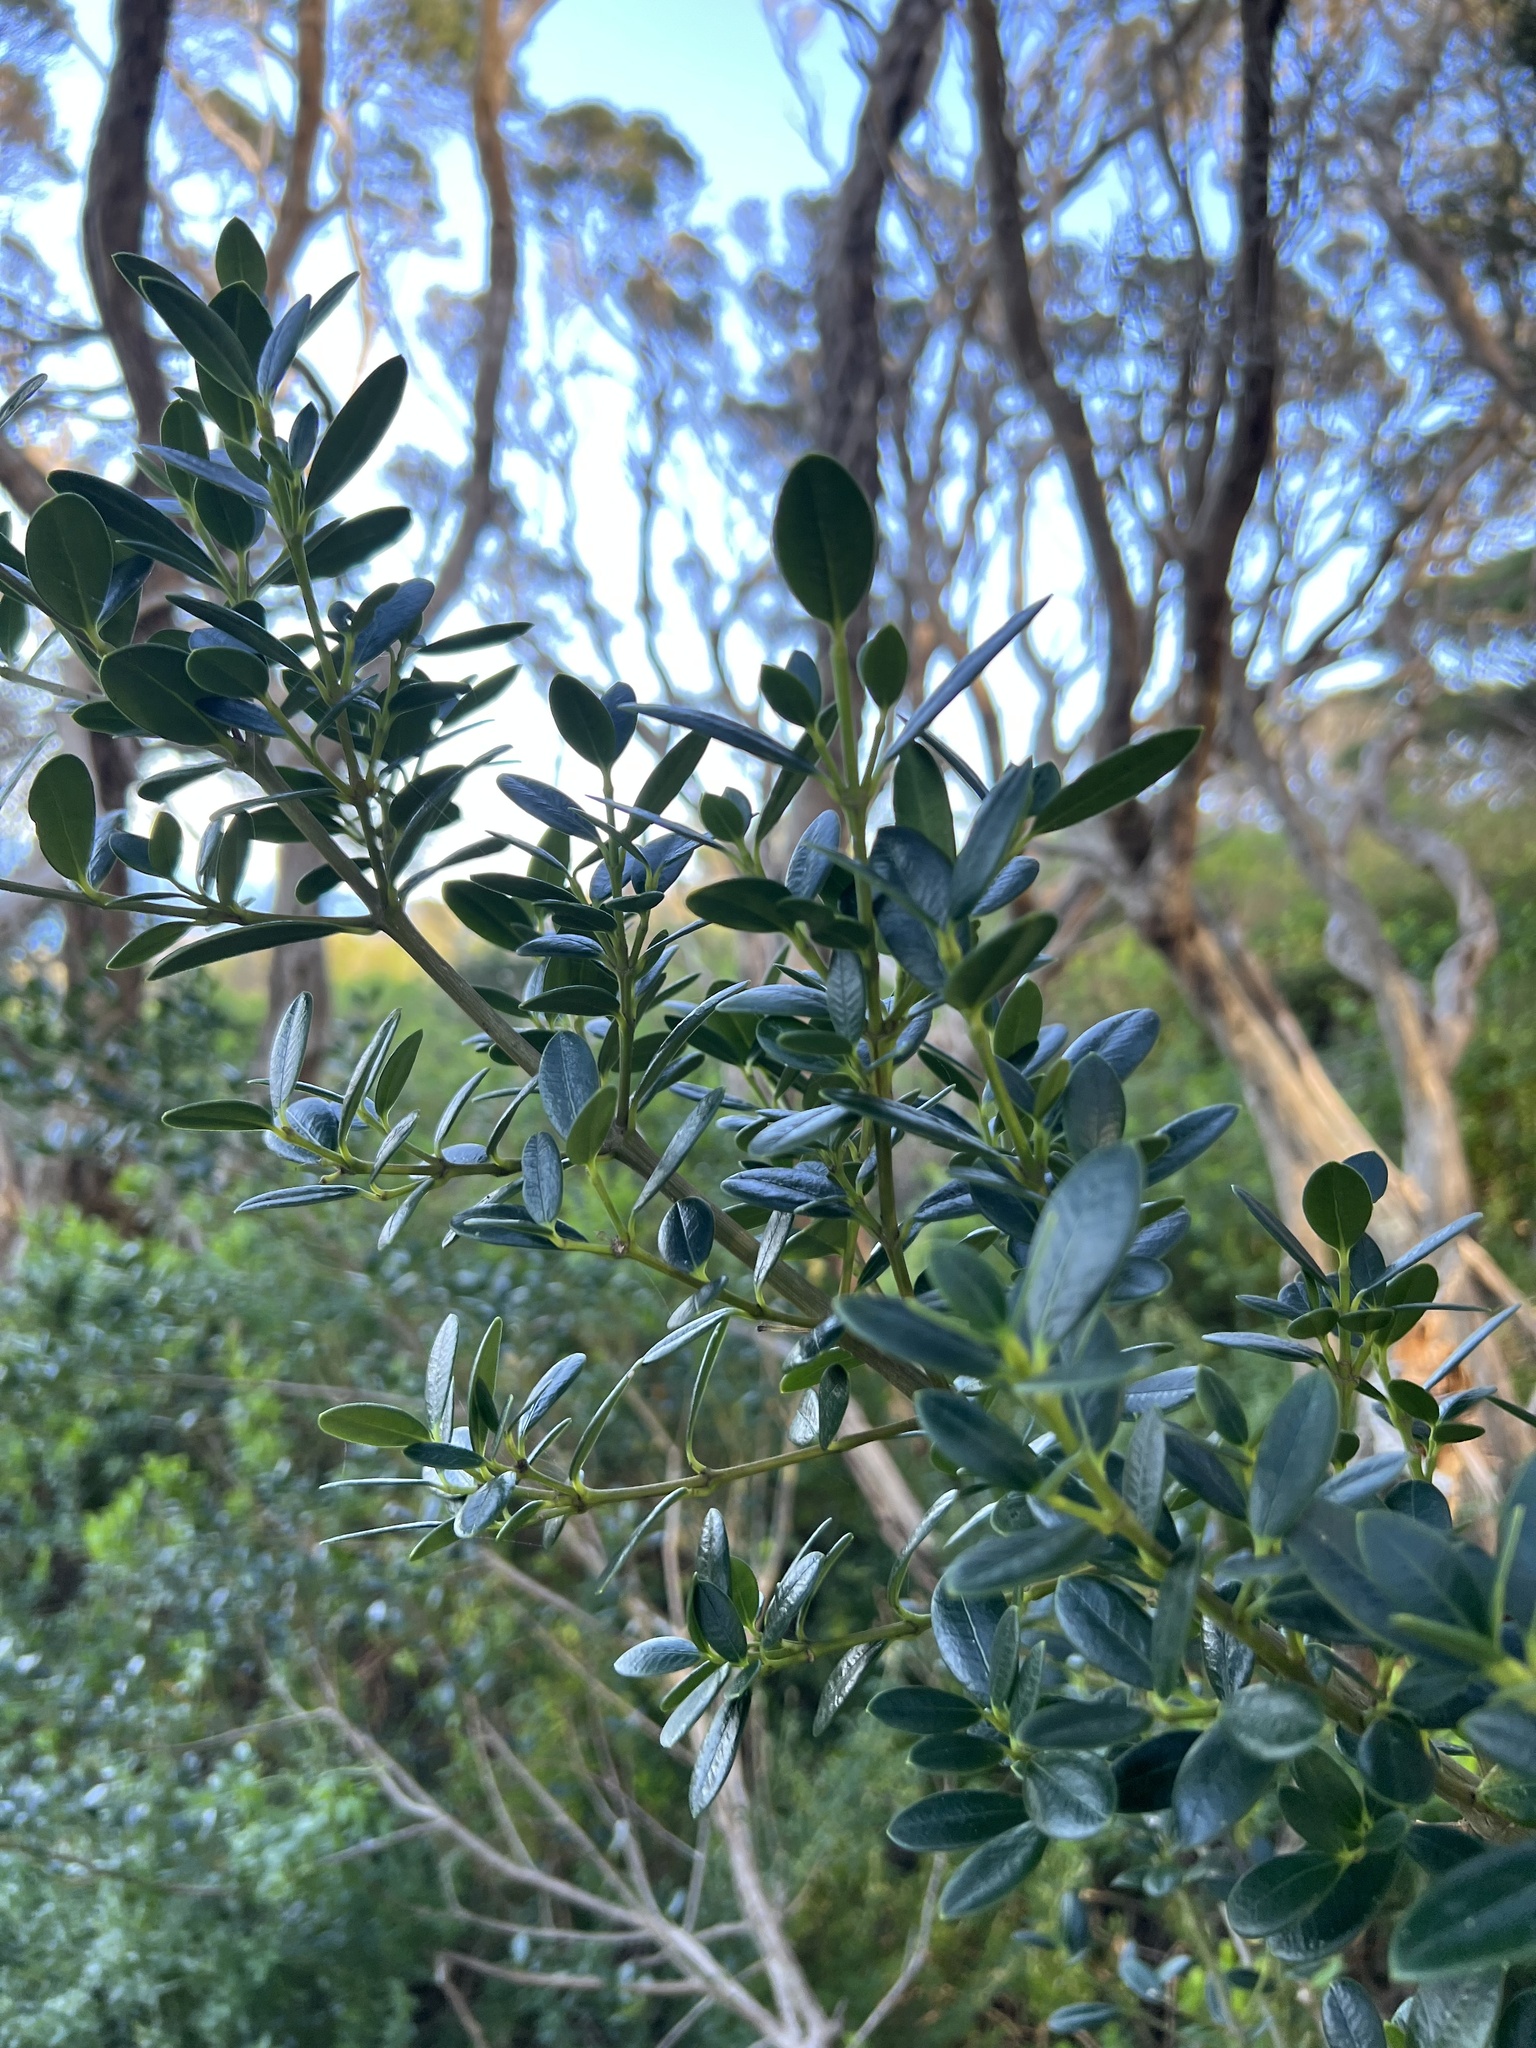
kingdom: Plantae
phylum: Tracheophyta
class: Magnoliopsida
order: Gentianales
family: Apocynaceae
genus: Alyxia
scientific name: Alyxia buxifolia
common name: Dysentery-bush
